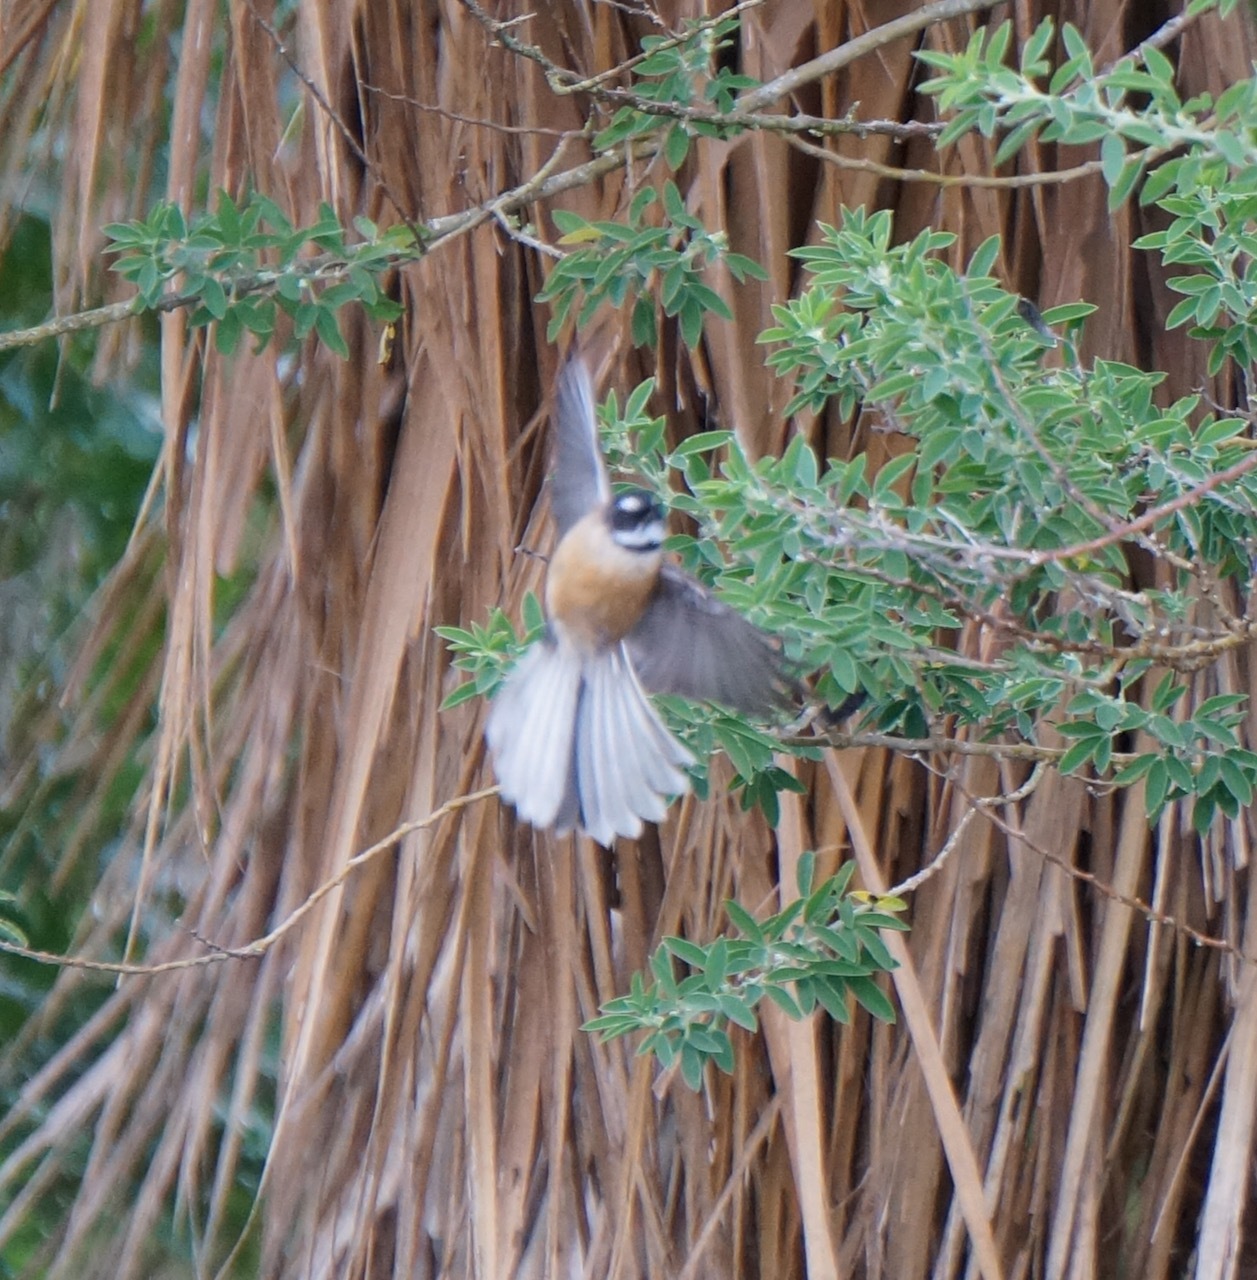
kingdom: Animalia
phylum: Chordata
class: Aves
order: Passeriformes
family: Rhipiduridae
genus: Rhipidura
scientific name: Rhipidura fuliginosa
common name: New zealand fantail
